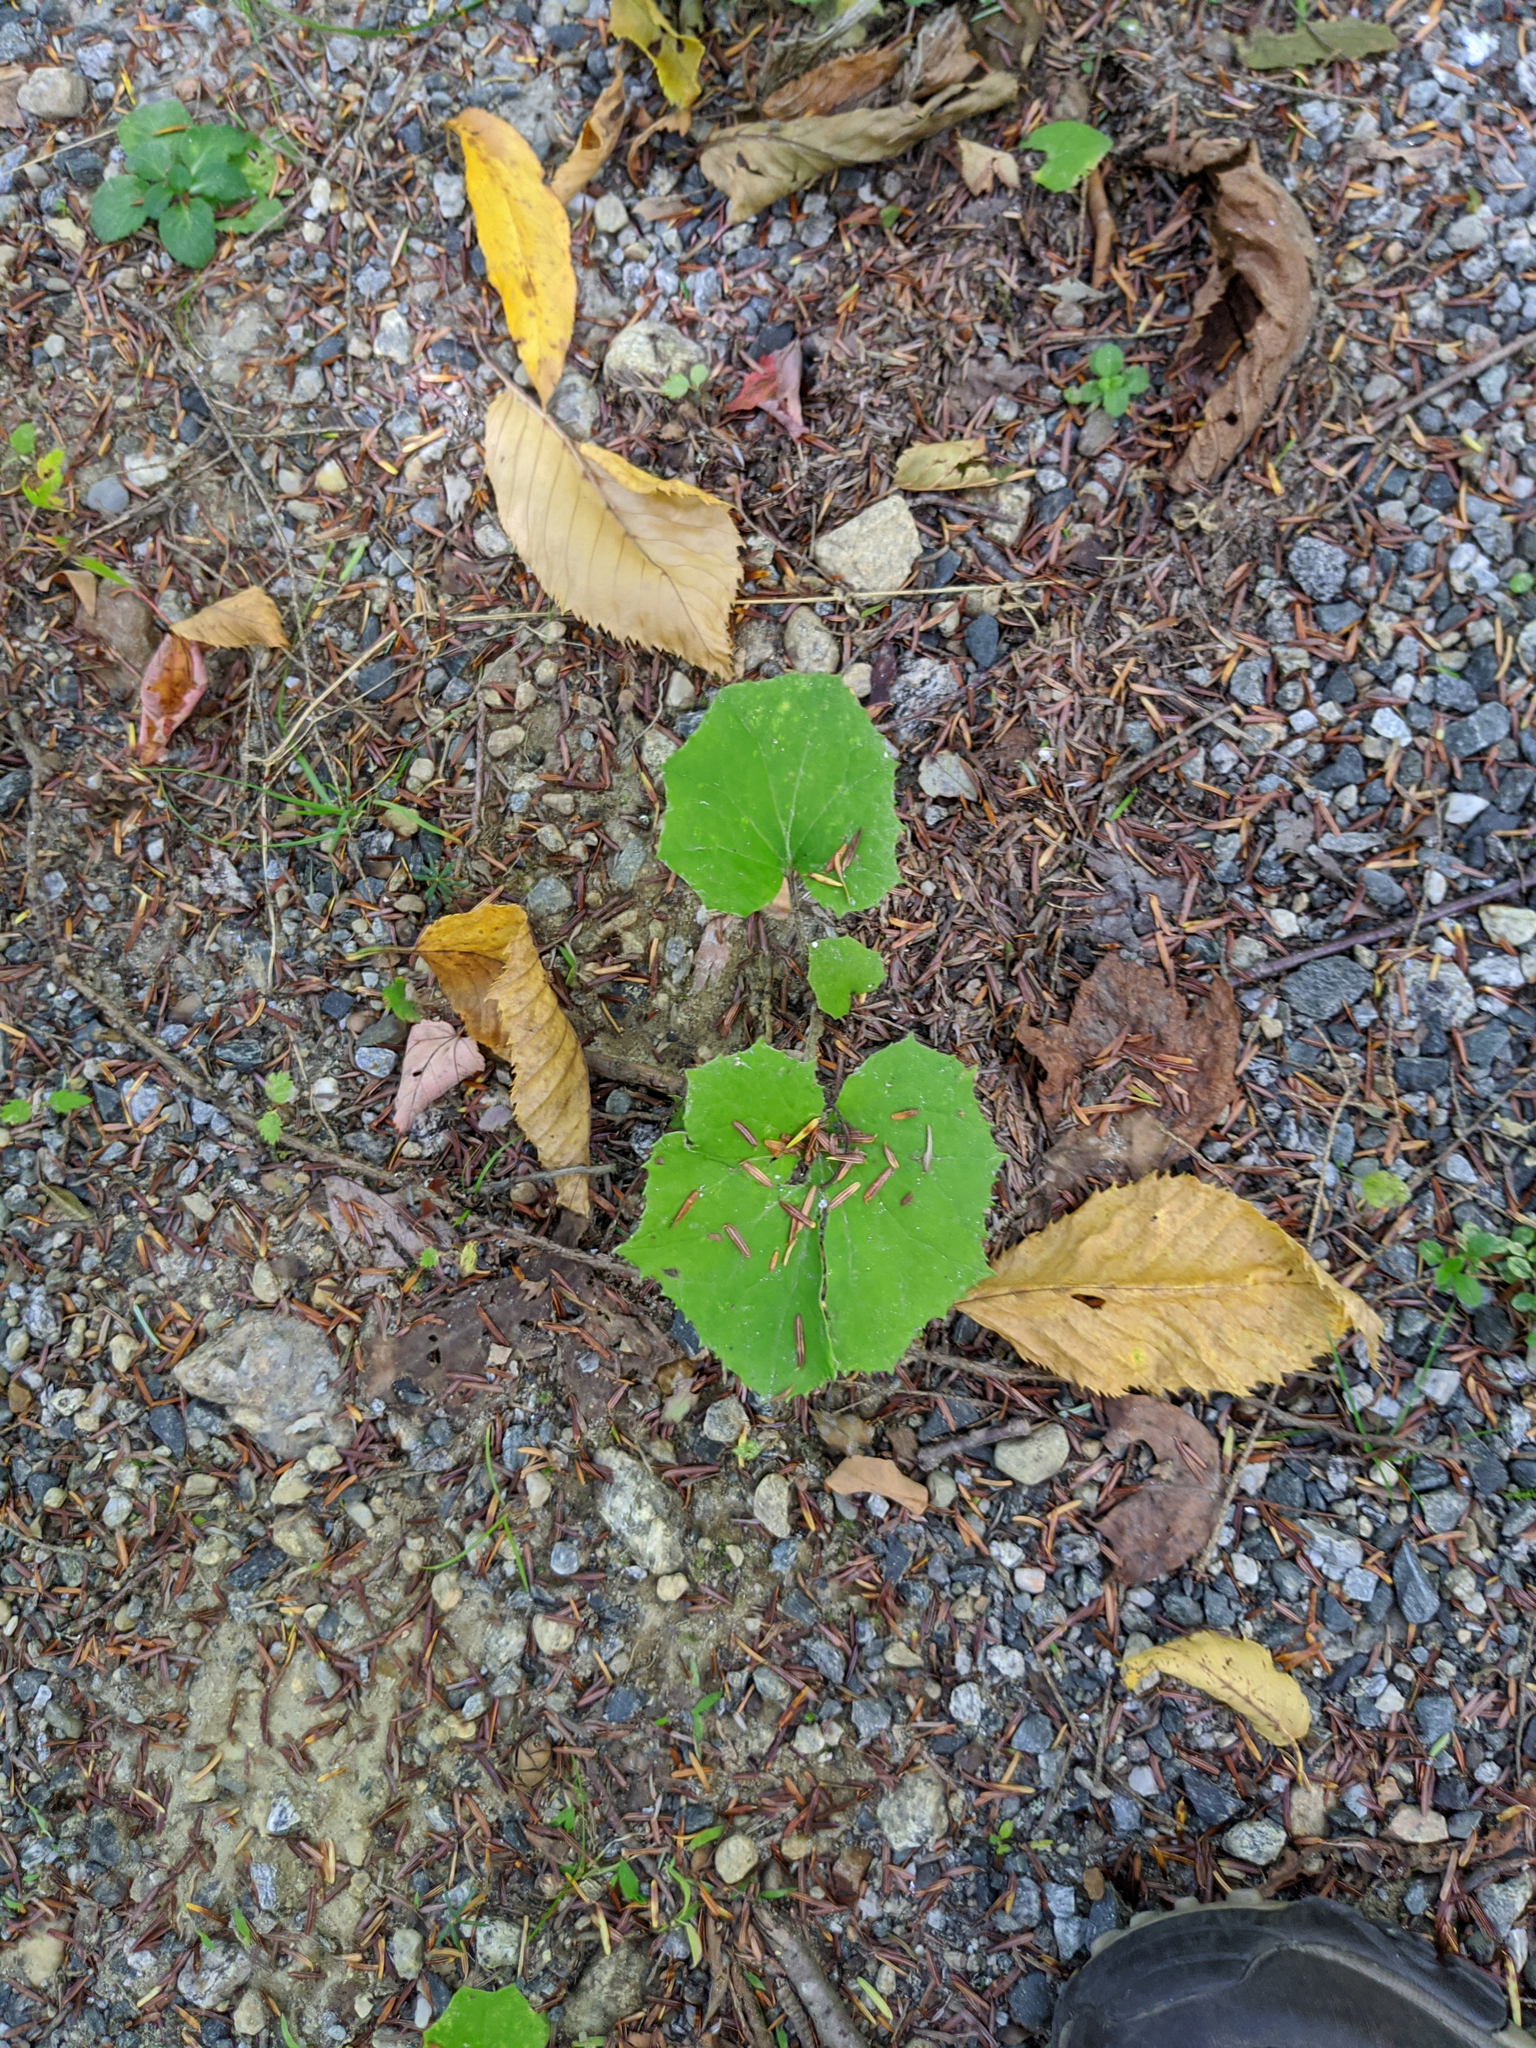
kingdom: Plantae
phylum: Tracheophyta
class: Magnoliopsida
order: Asterales
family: Asteraceae
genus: Tussilago
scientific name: Tussilago farfara
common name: Coltsfoot
